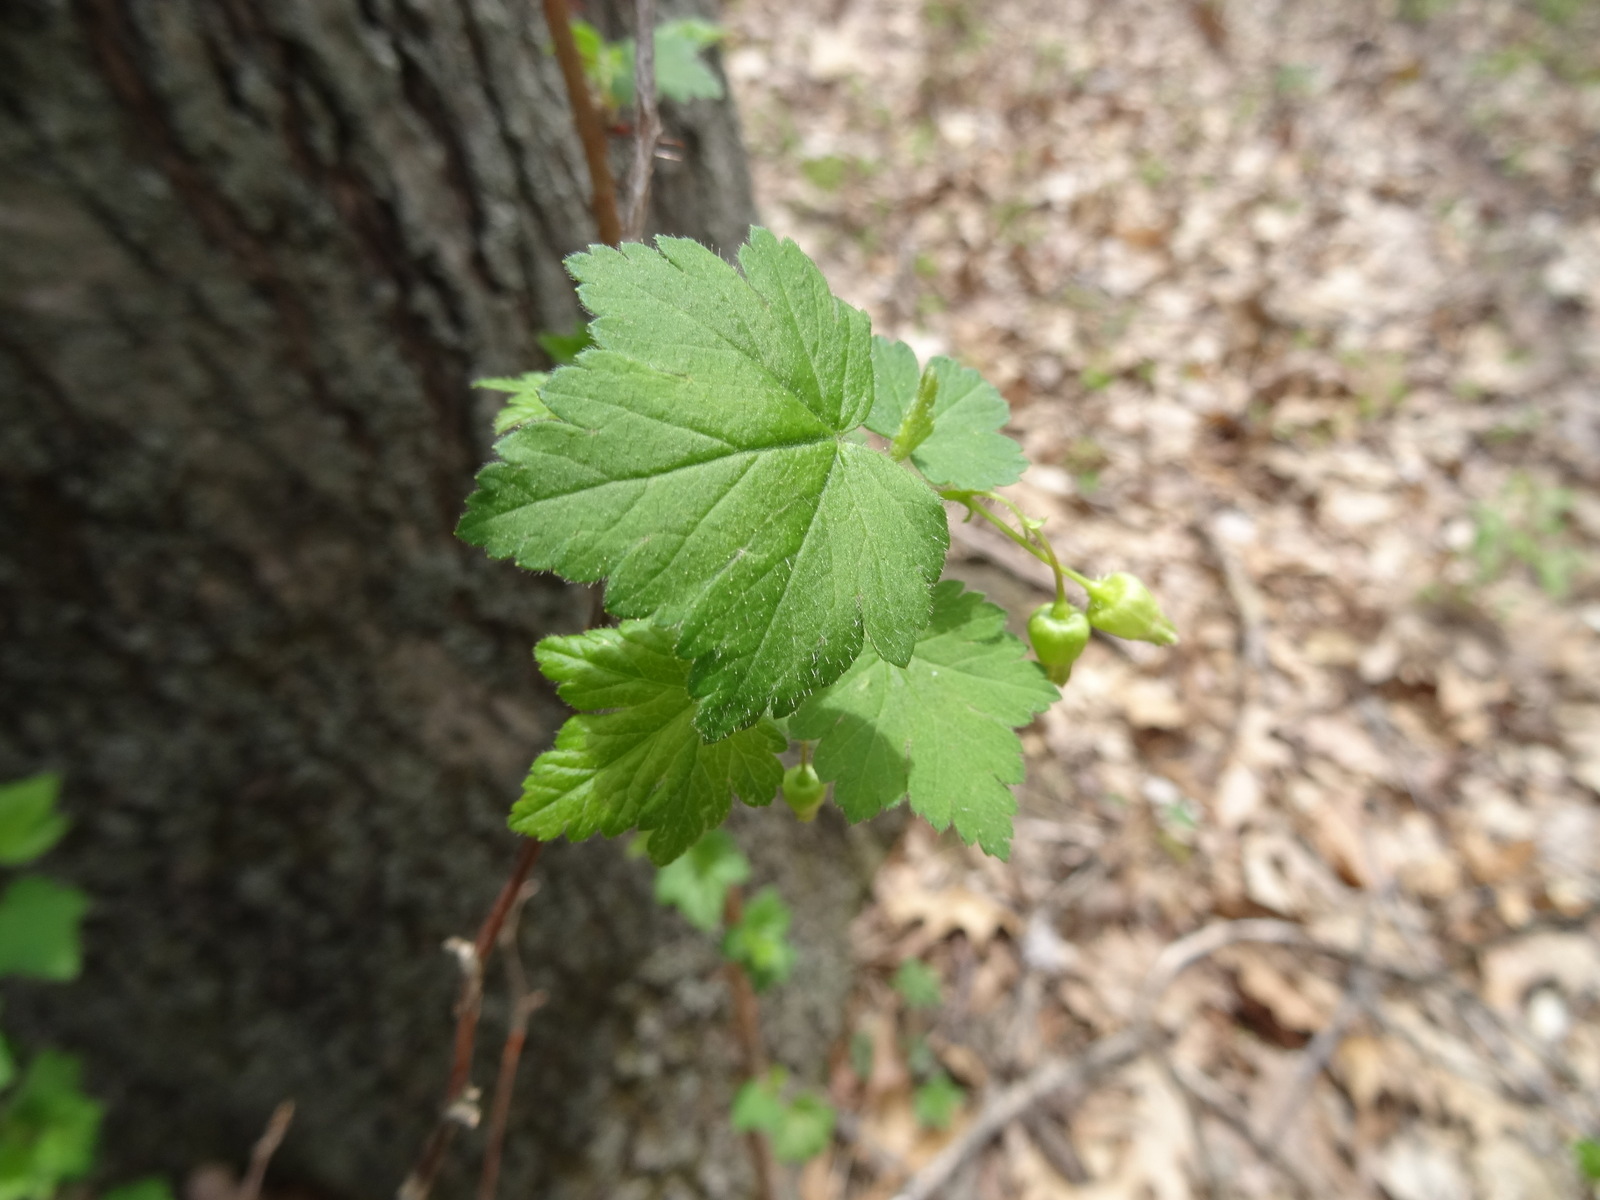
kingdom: Plantae
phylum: Tracheophyta
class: Magnoliopsida
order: Saxifragales
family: Grossulariaceae
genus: Ribes
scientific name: Ribes cynosbati
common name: American gooseberry
